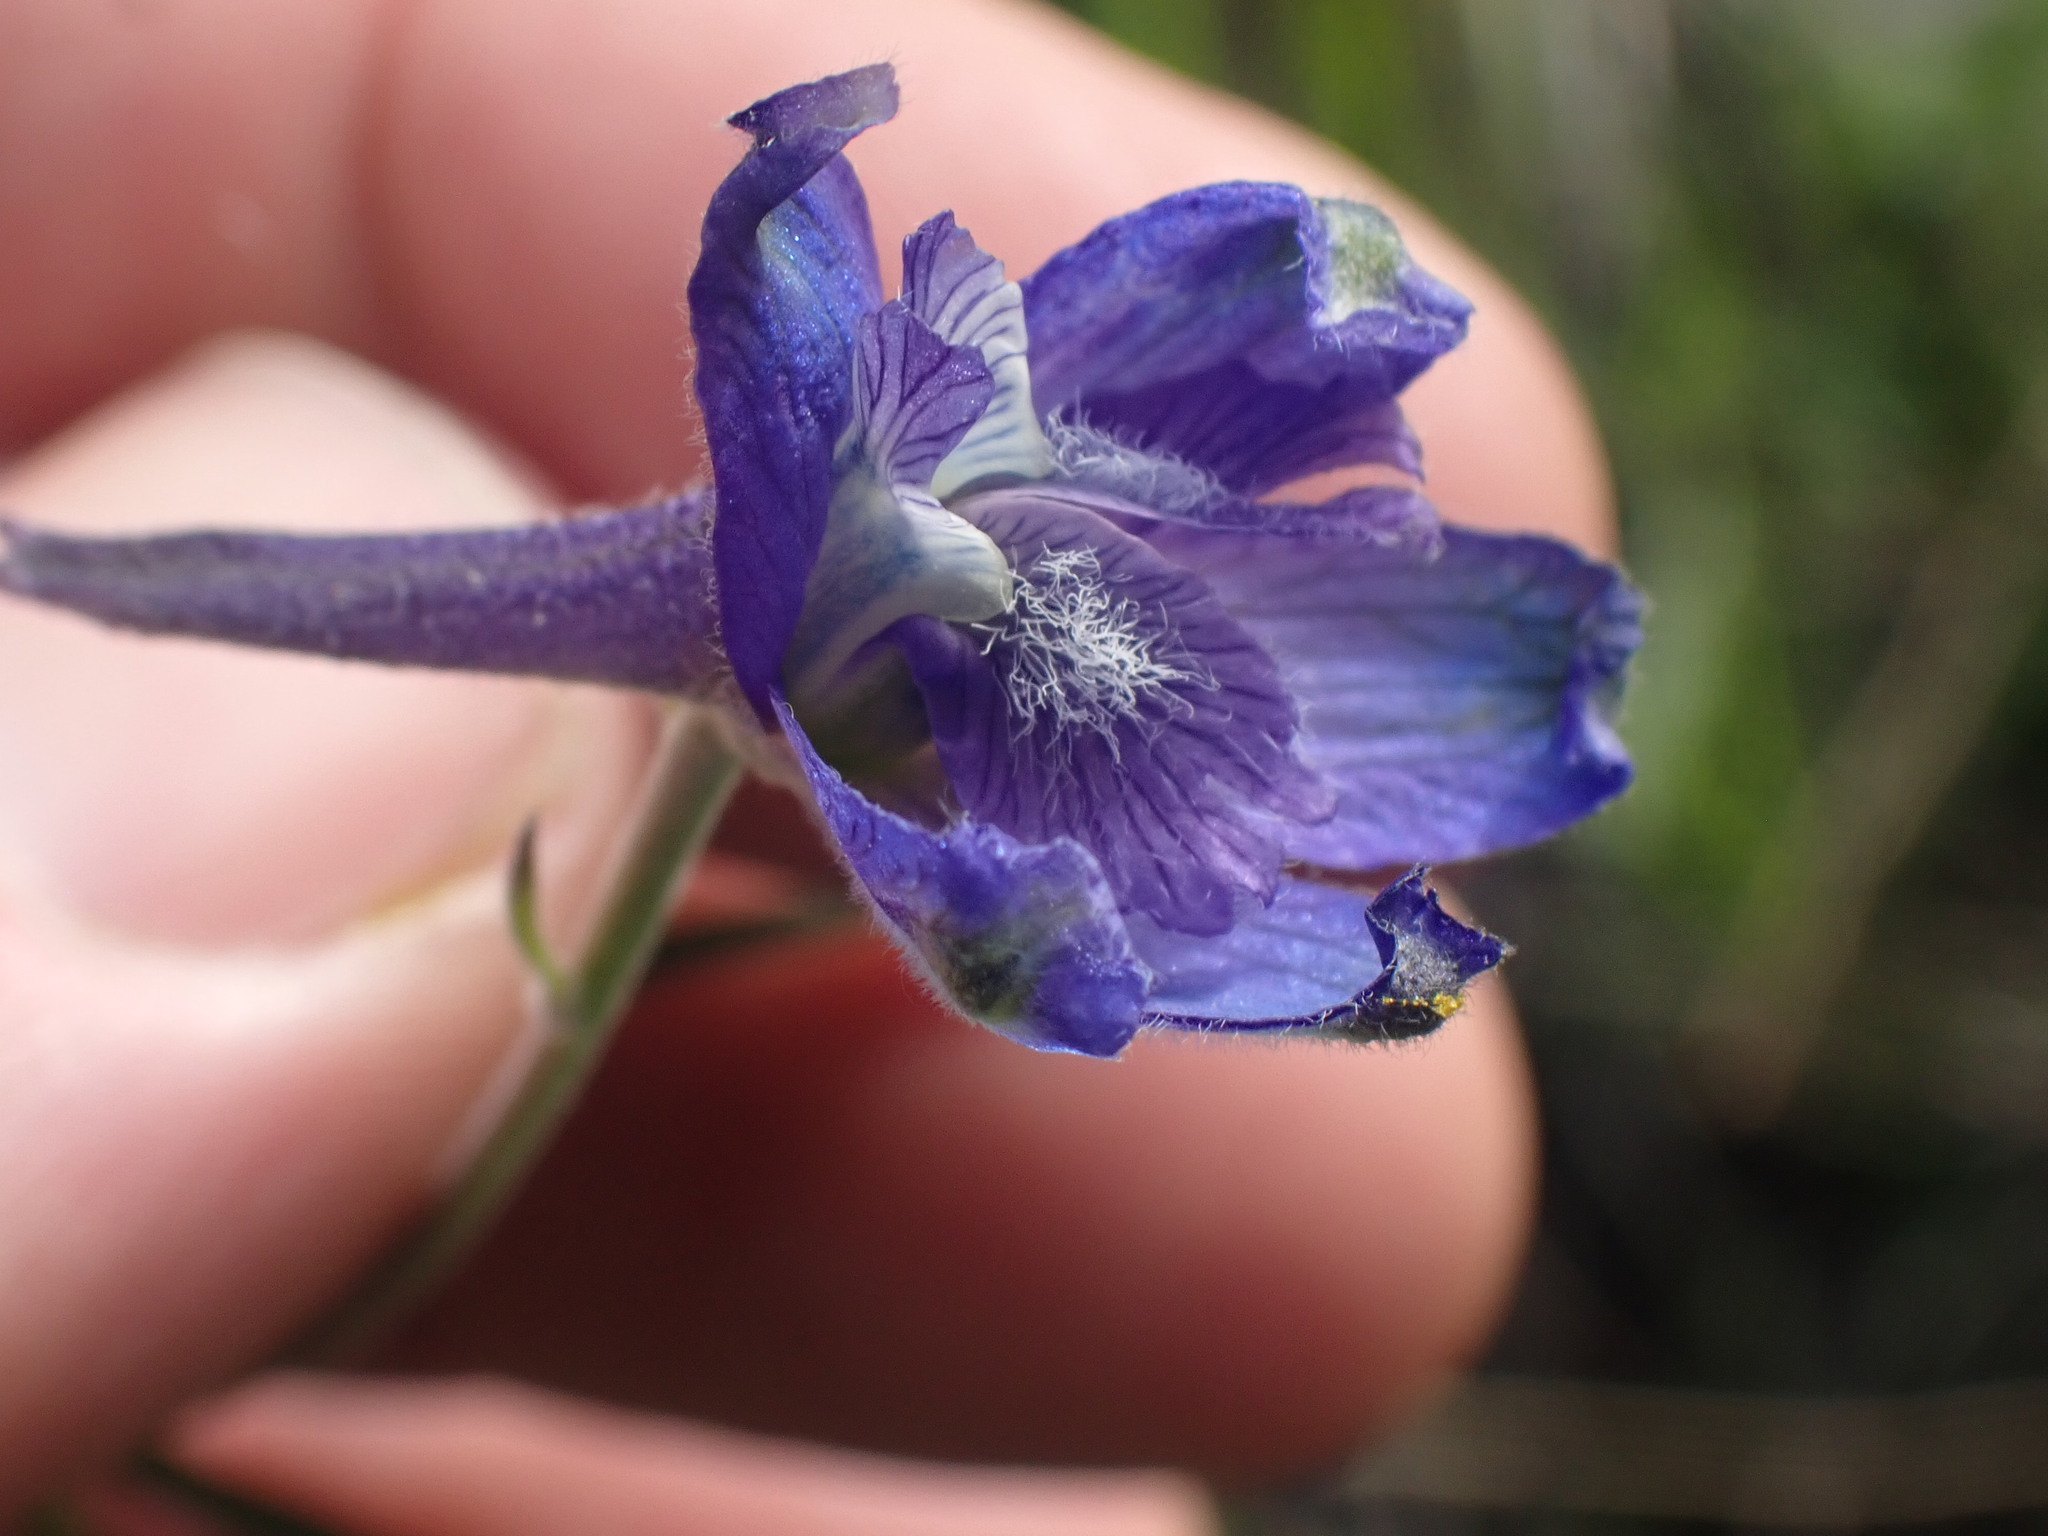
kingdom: Plantae
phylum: Tracheophyta
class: Magnoliopsida
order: Ranunculales
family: Ranunculaceae
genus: Delphinium
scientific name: Delphinium nuttallianum
